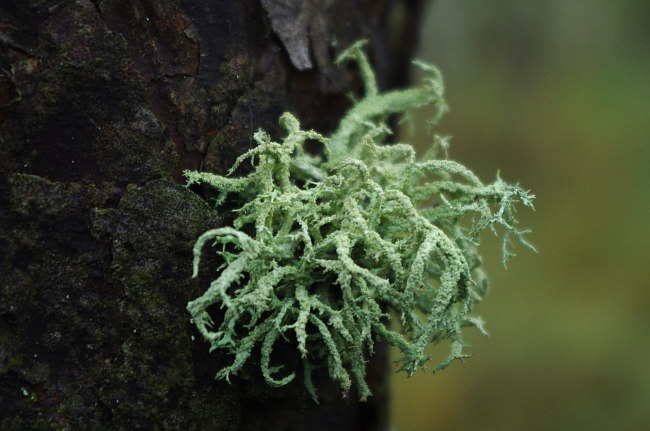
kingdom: Fungi
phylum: Ascomycota
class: Lecanoromycetes
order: Lecanorales
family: Parmeliaceae
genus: Evernia
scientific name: Evernia mesomorpha
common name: Boreal oak moss lichen
